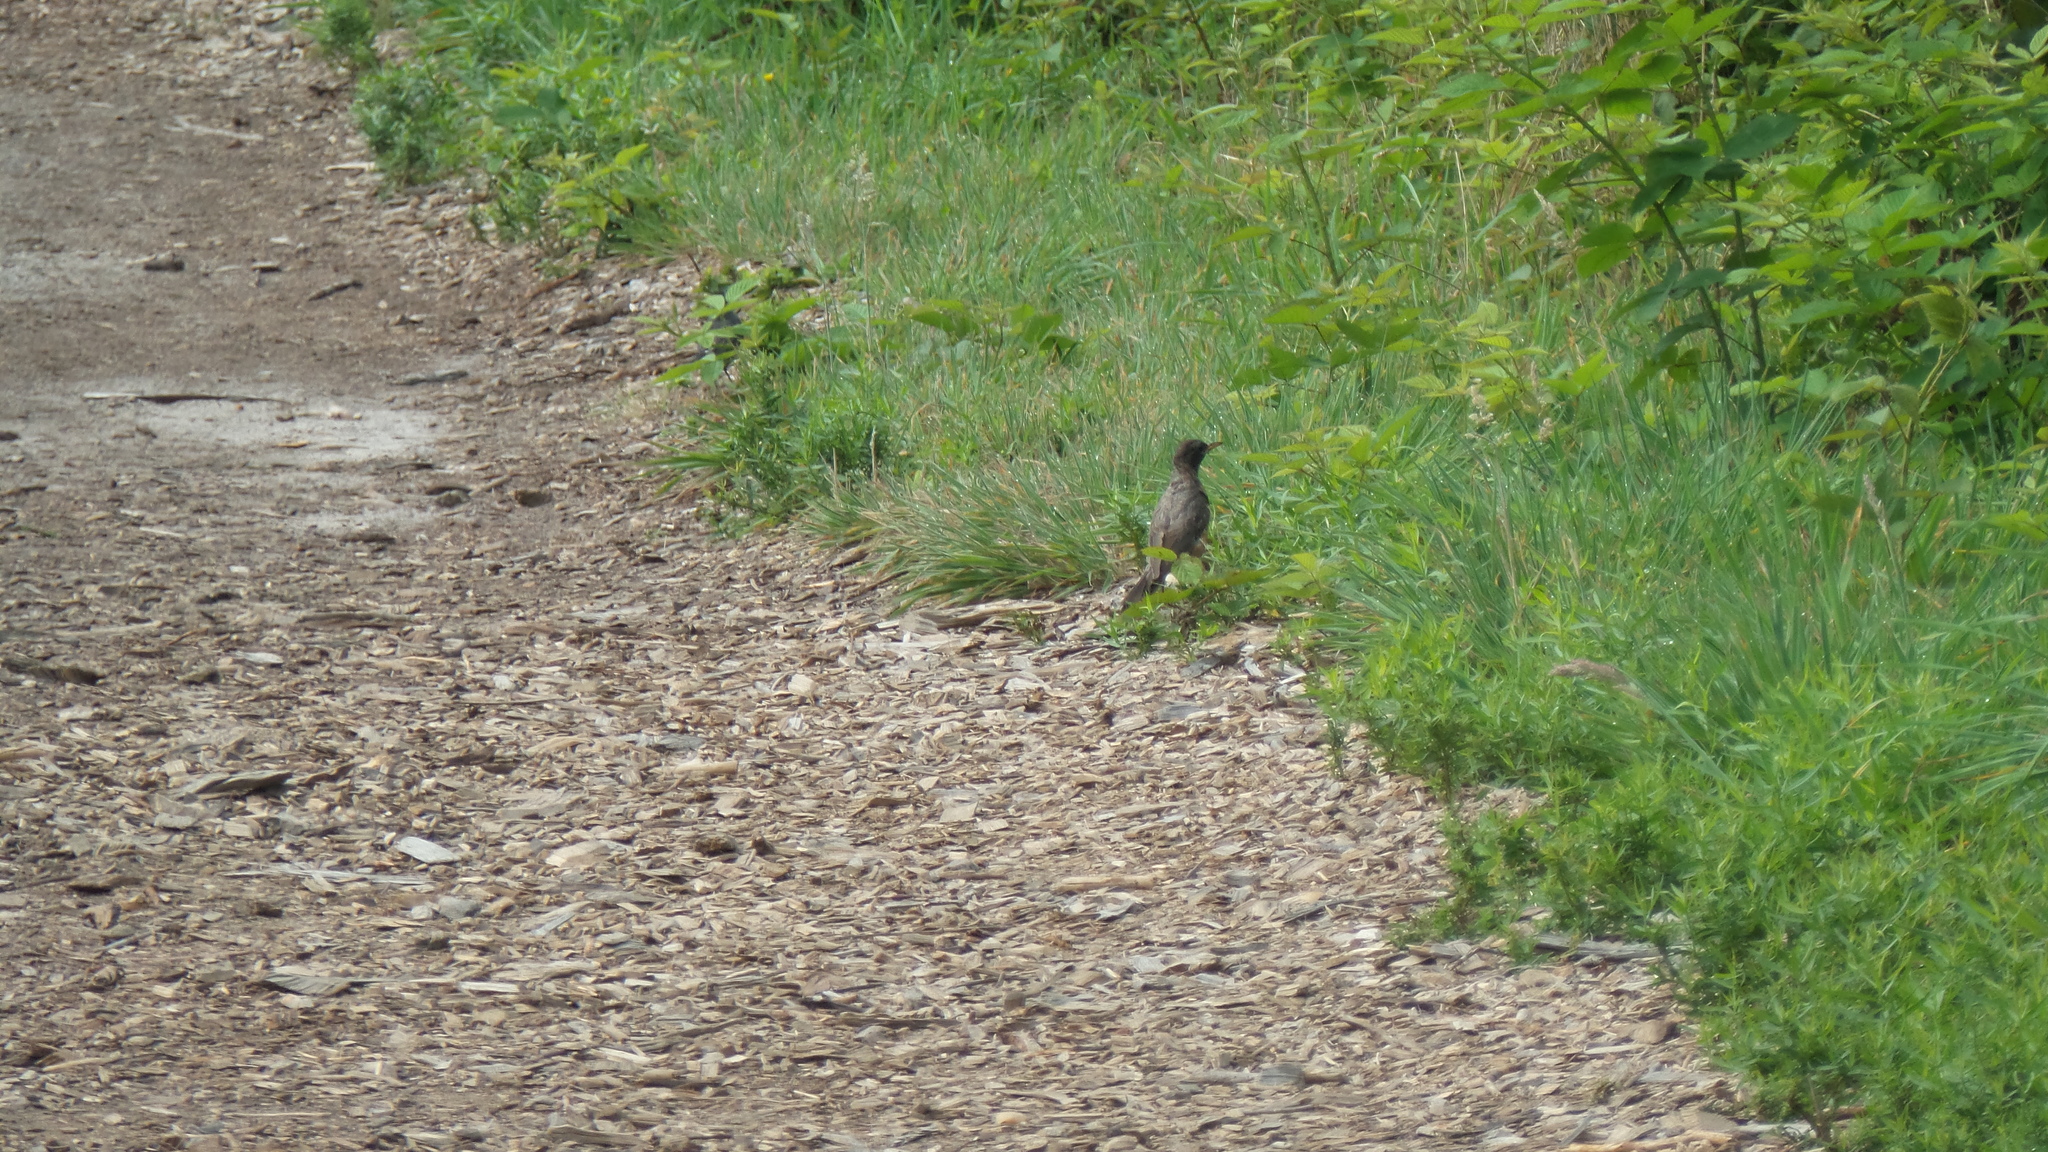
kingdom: Animalia
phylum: Chordata
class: Aves
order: Passeriformes
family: Turdidae
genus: Turdus
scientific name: Turdus migratorius
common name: American robin
